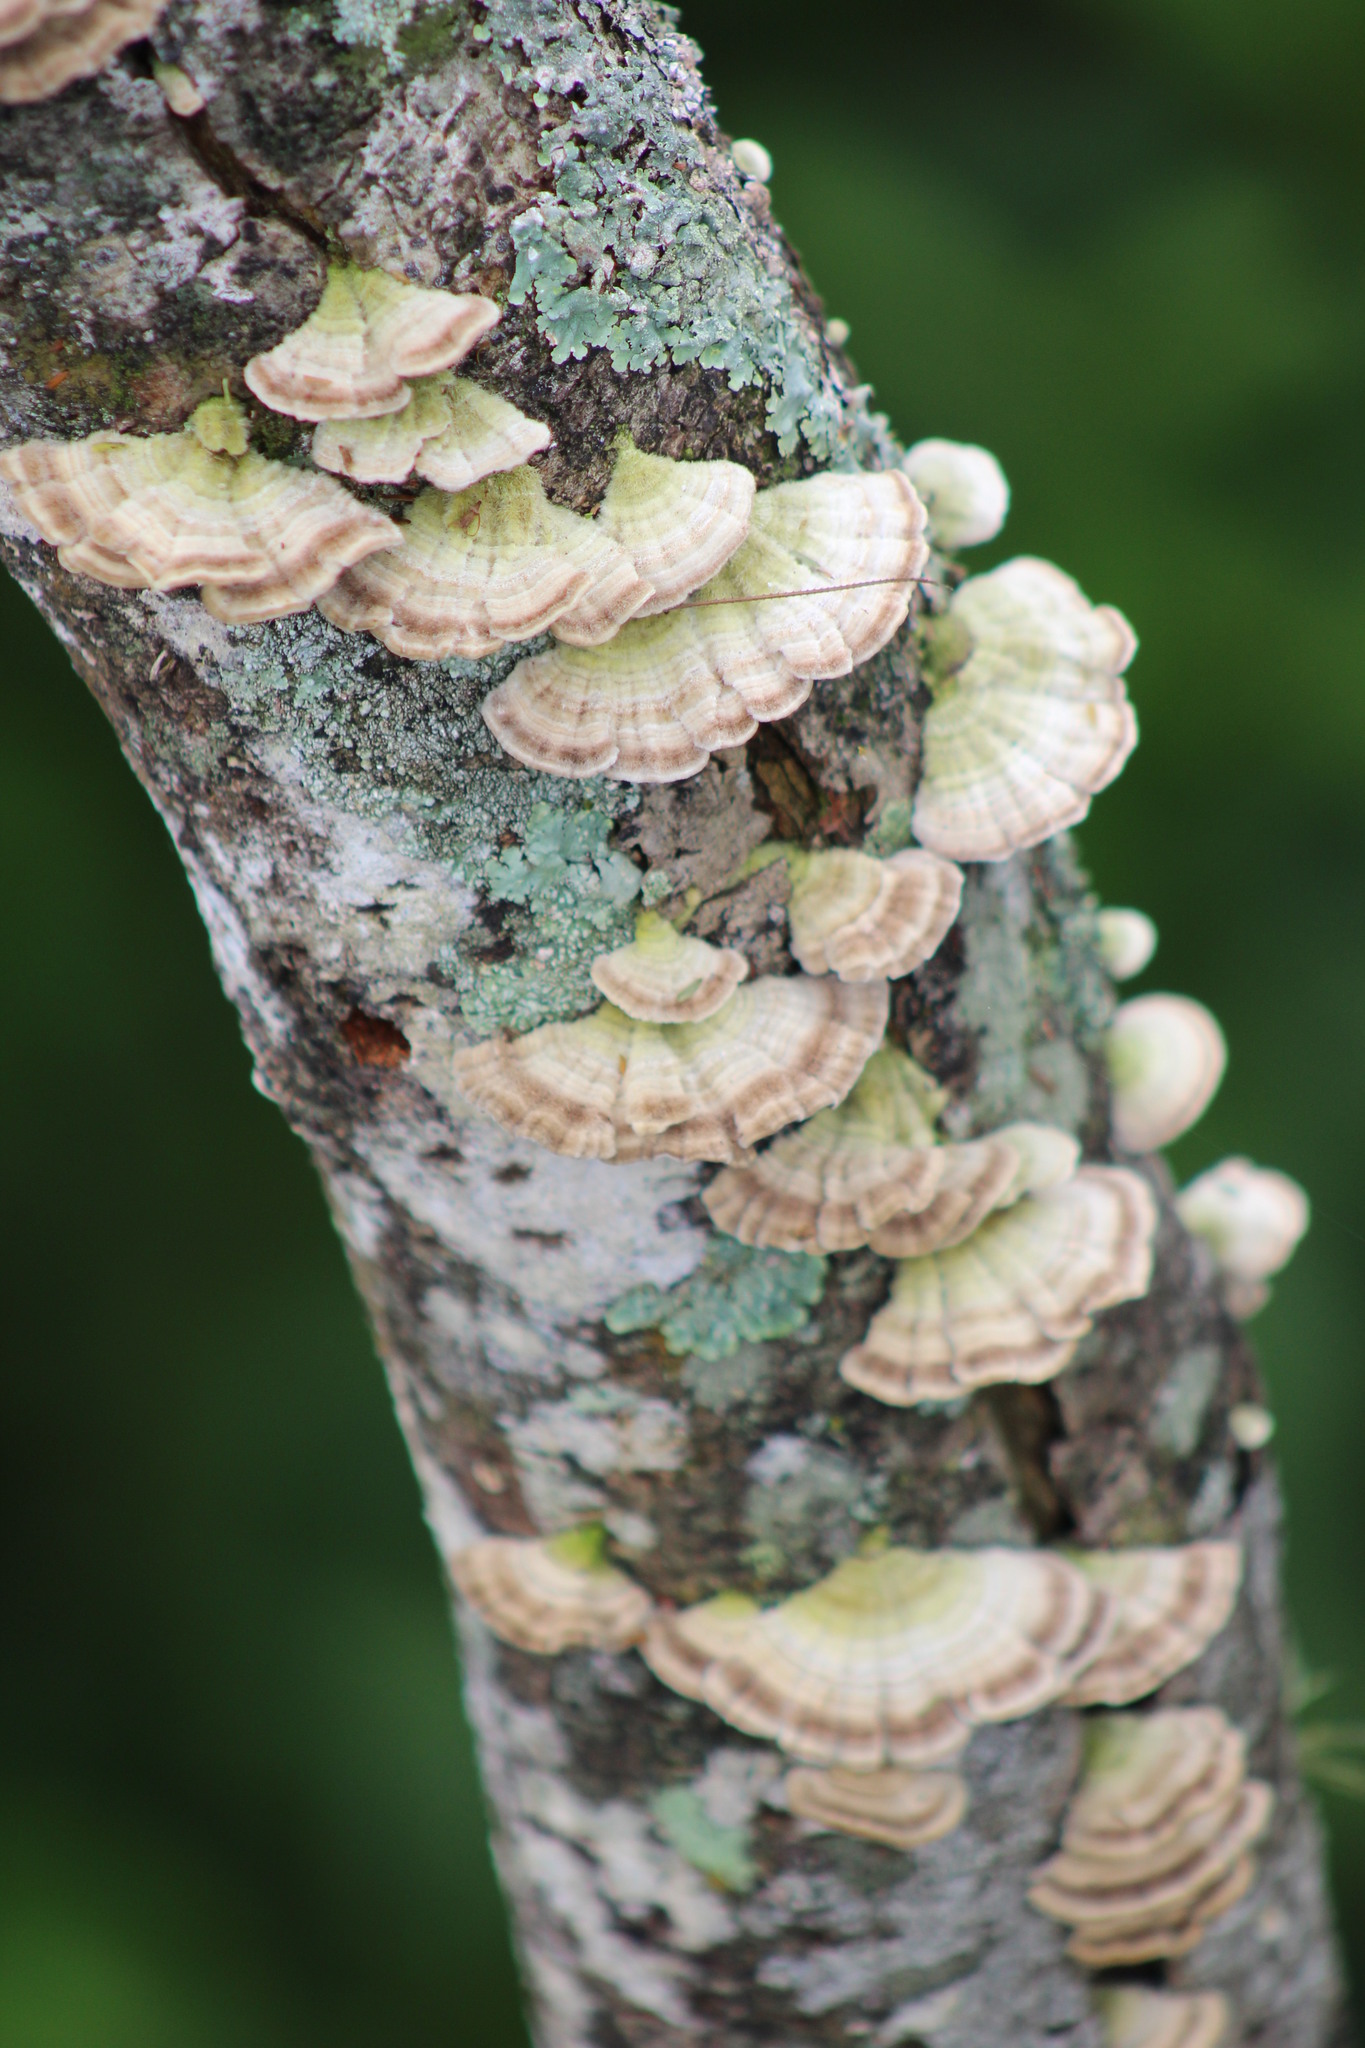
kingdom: Fungi
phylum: Basidiomycota
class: Agaricomycetes
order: Hymenochaetales
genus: Trichaptum
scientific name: Trichaptum biforme
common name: Violet-toothed polypore
